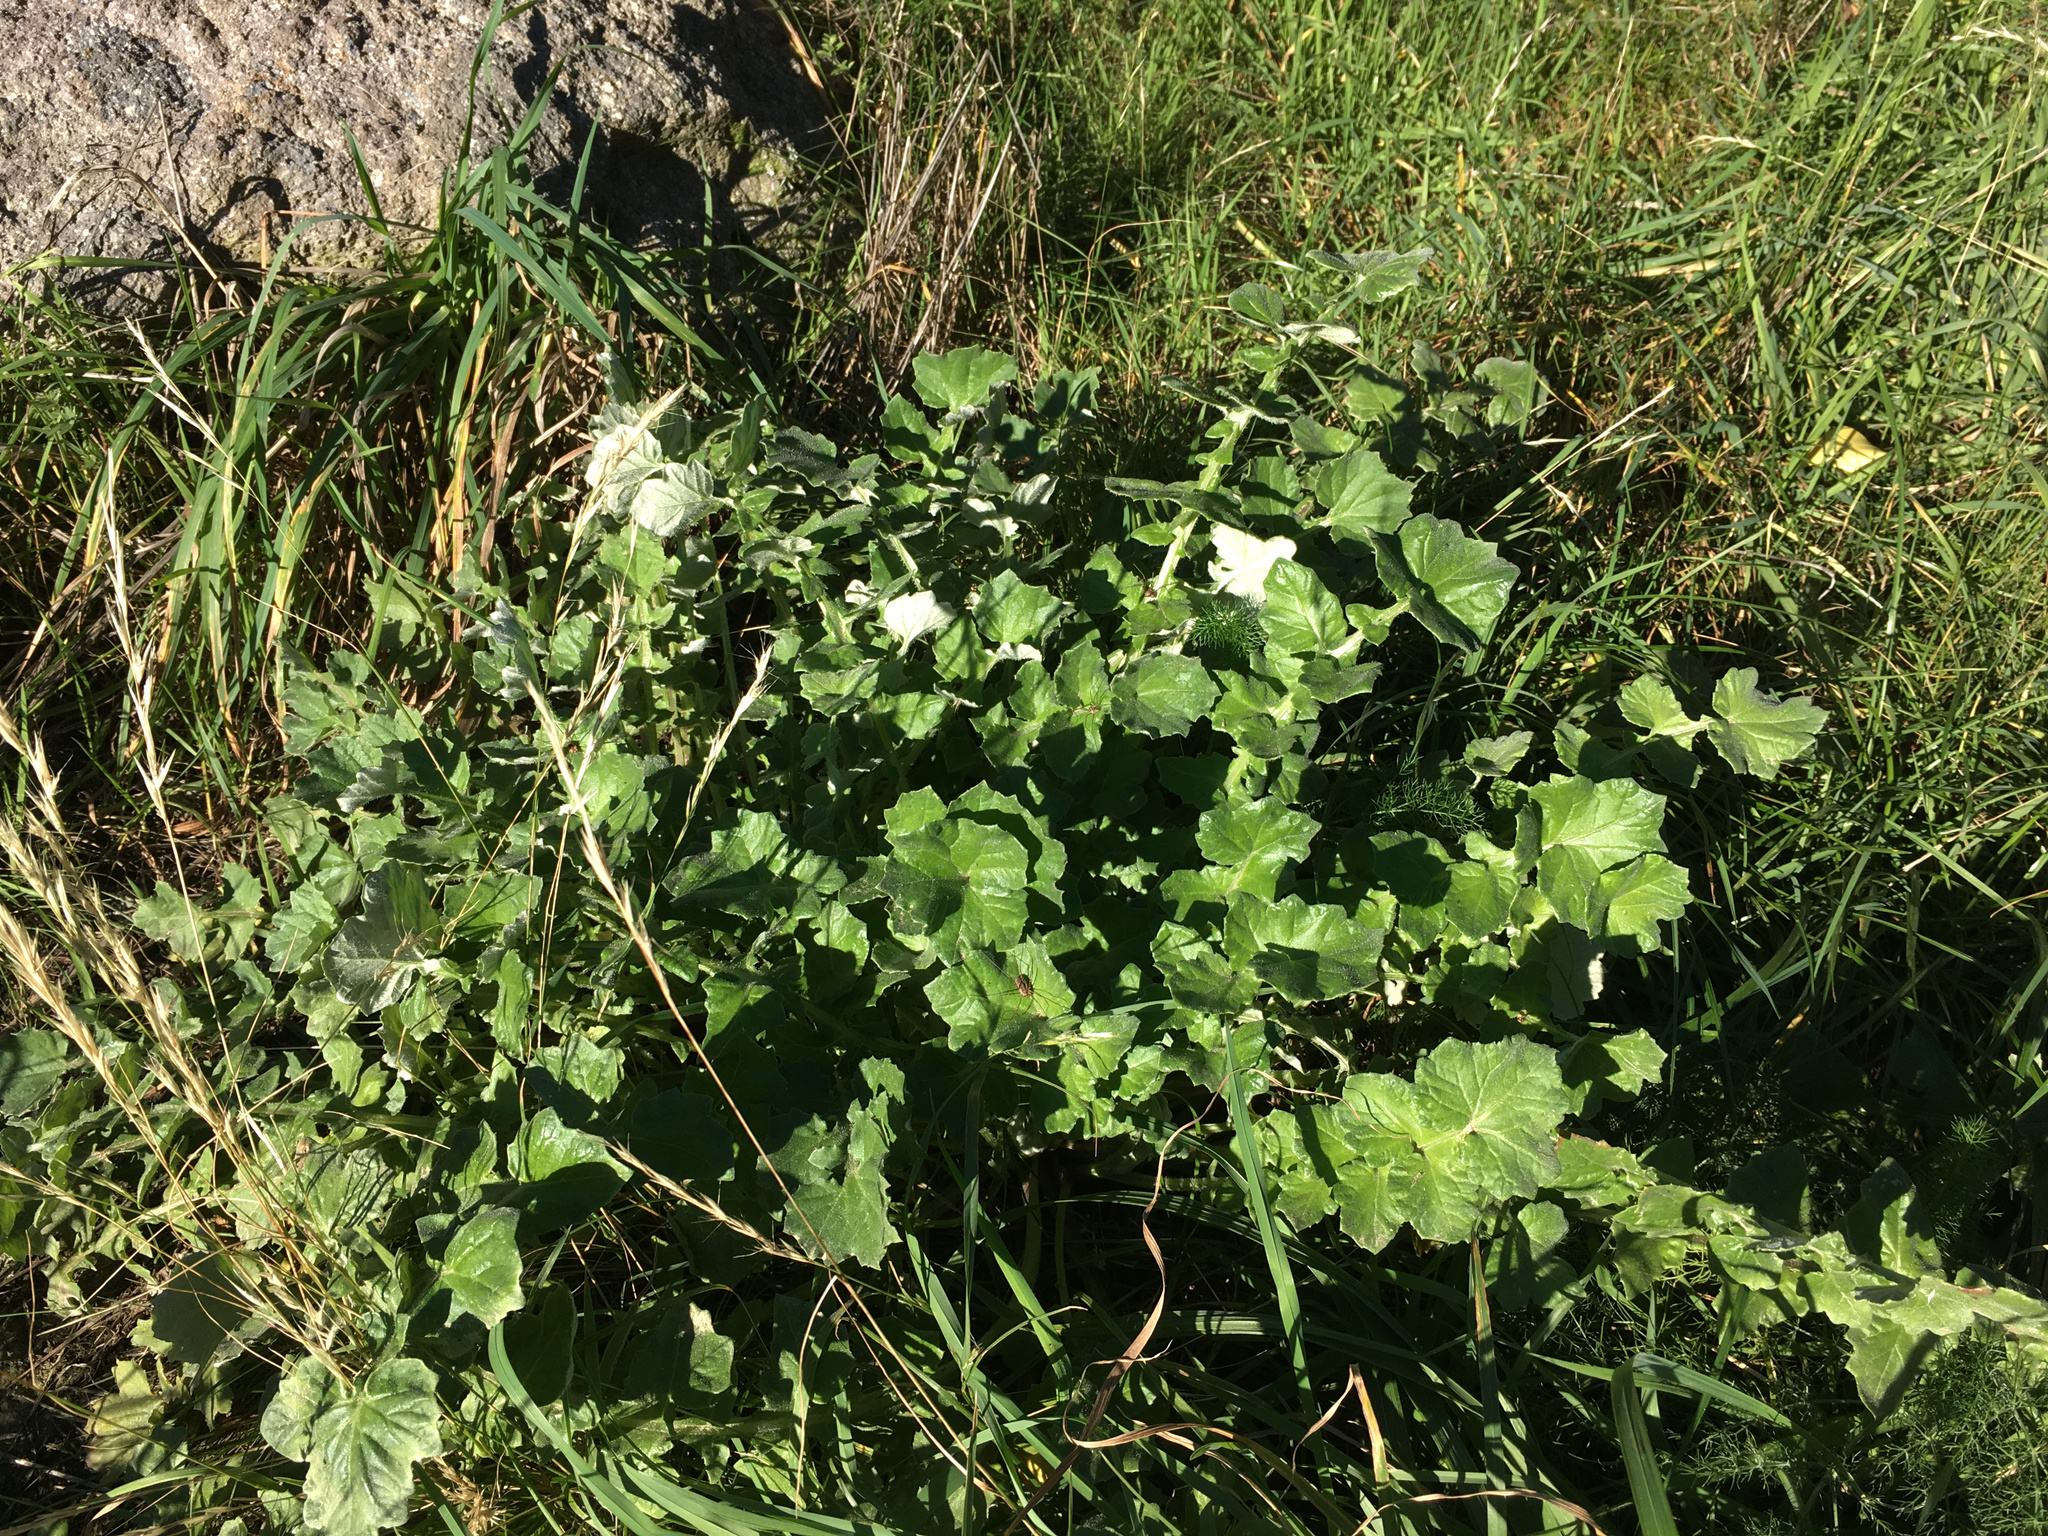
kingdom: Plantae
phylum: Tracheophyta
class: Magnoliopsida
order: Asterales
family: Asteraceae
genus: Arctotheca
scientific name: Arctotheca calendula
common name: Capeweed
